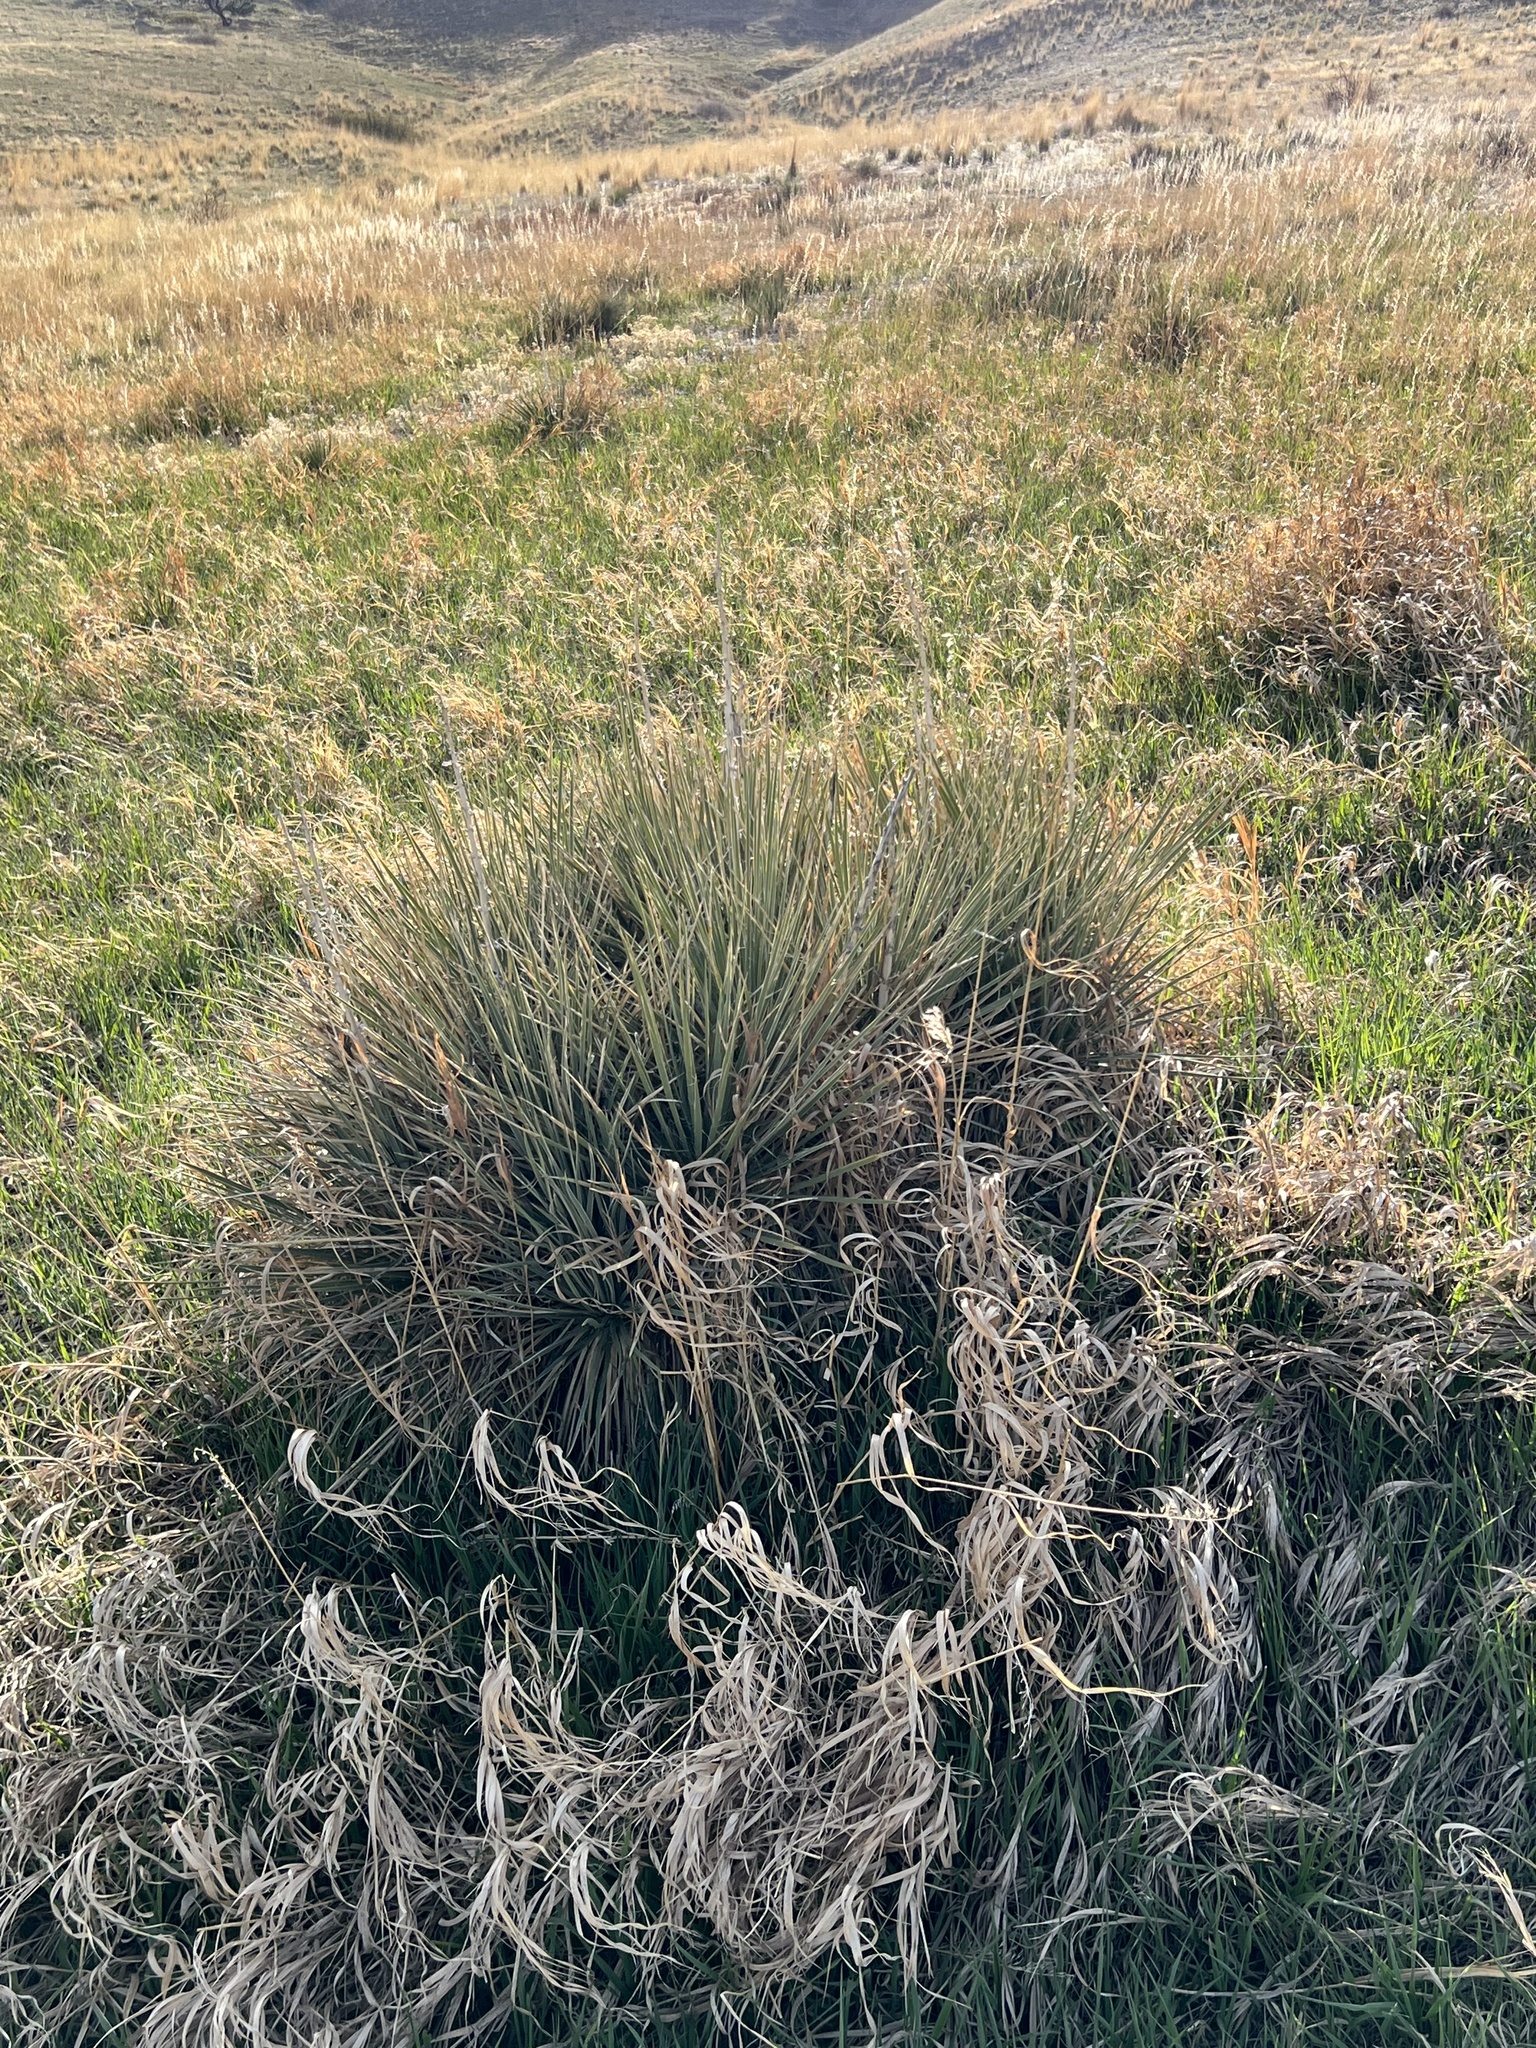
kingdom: Plantae
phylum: Tracheophyta
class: Liliopsida
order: Asparagales
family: Asparagaceae
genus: Yucca
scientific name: Yucca glauca
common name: Great plains yucca
